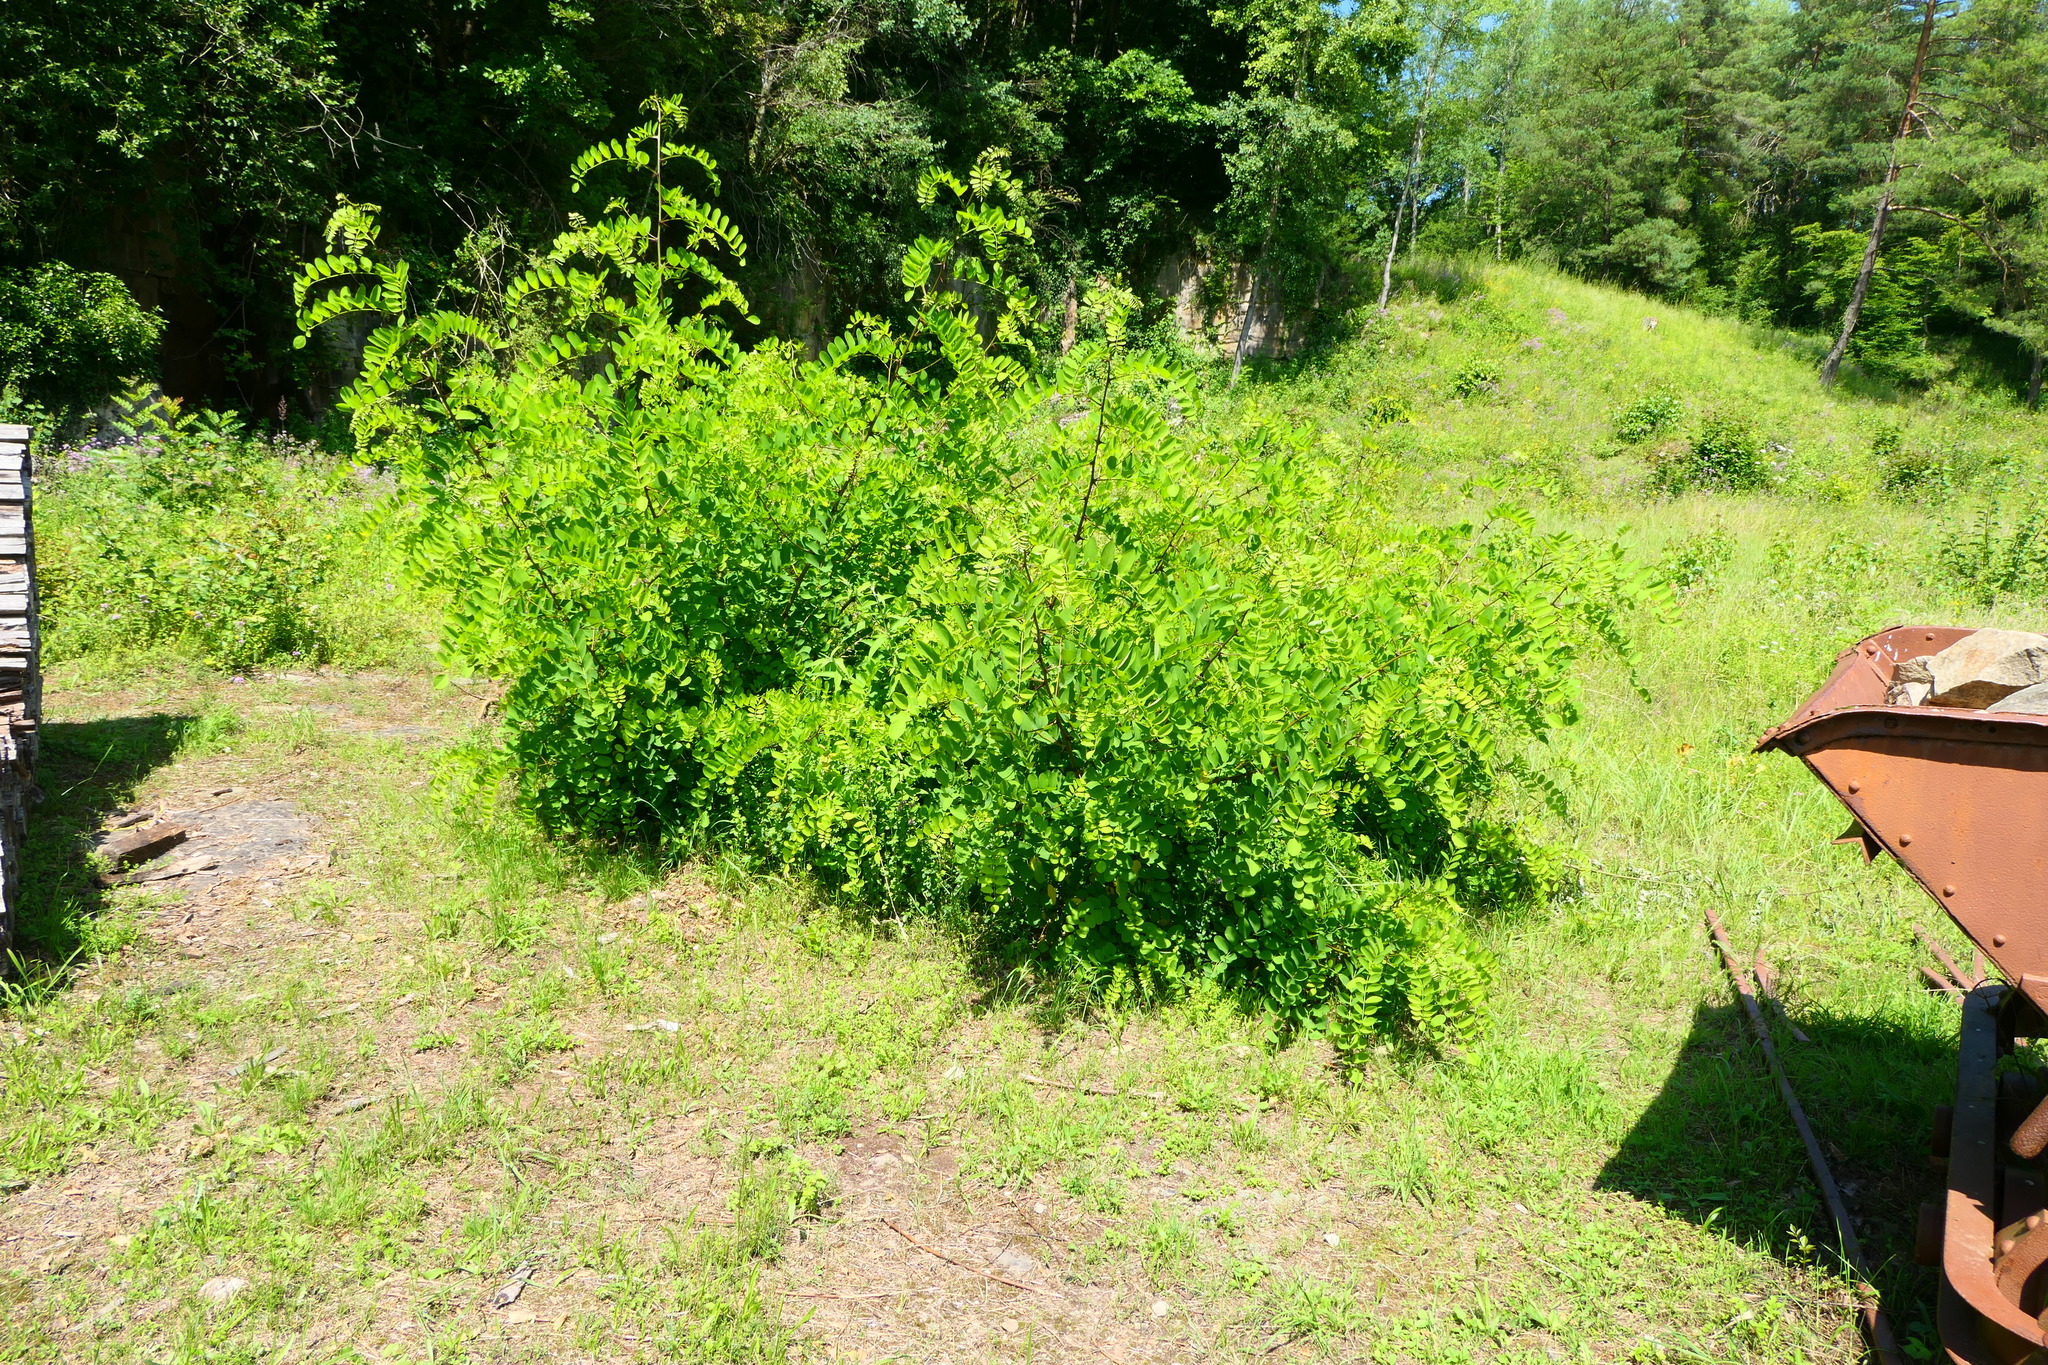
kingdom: Plantae
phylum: Tracheophyta
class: Magnoliopsida
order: Fabales
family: Fabaceae
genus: Robinia
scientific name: Robinia pseudoacacia
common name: Black locust
